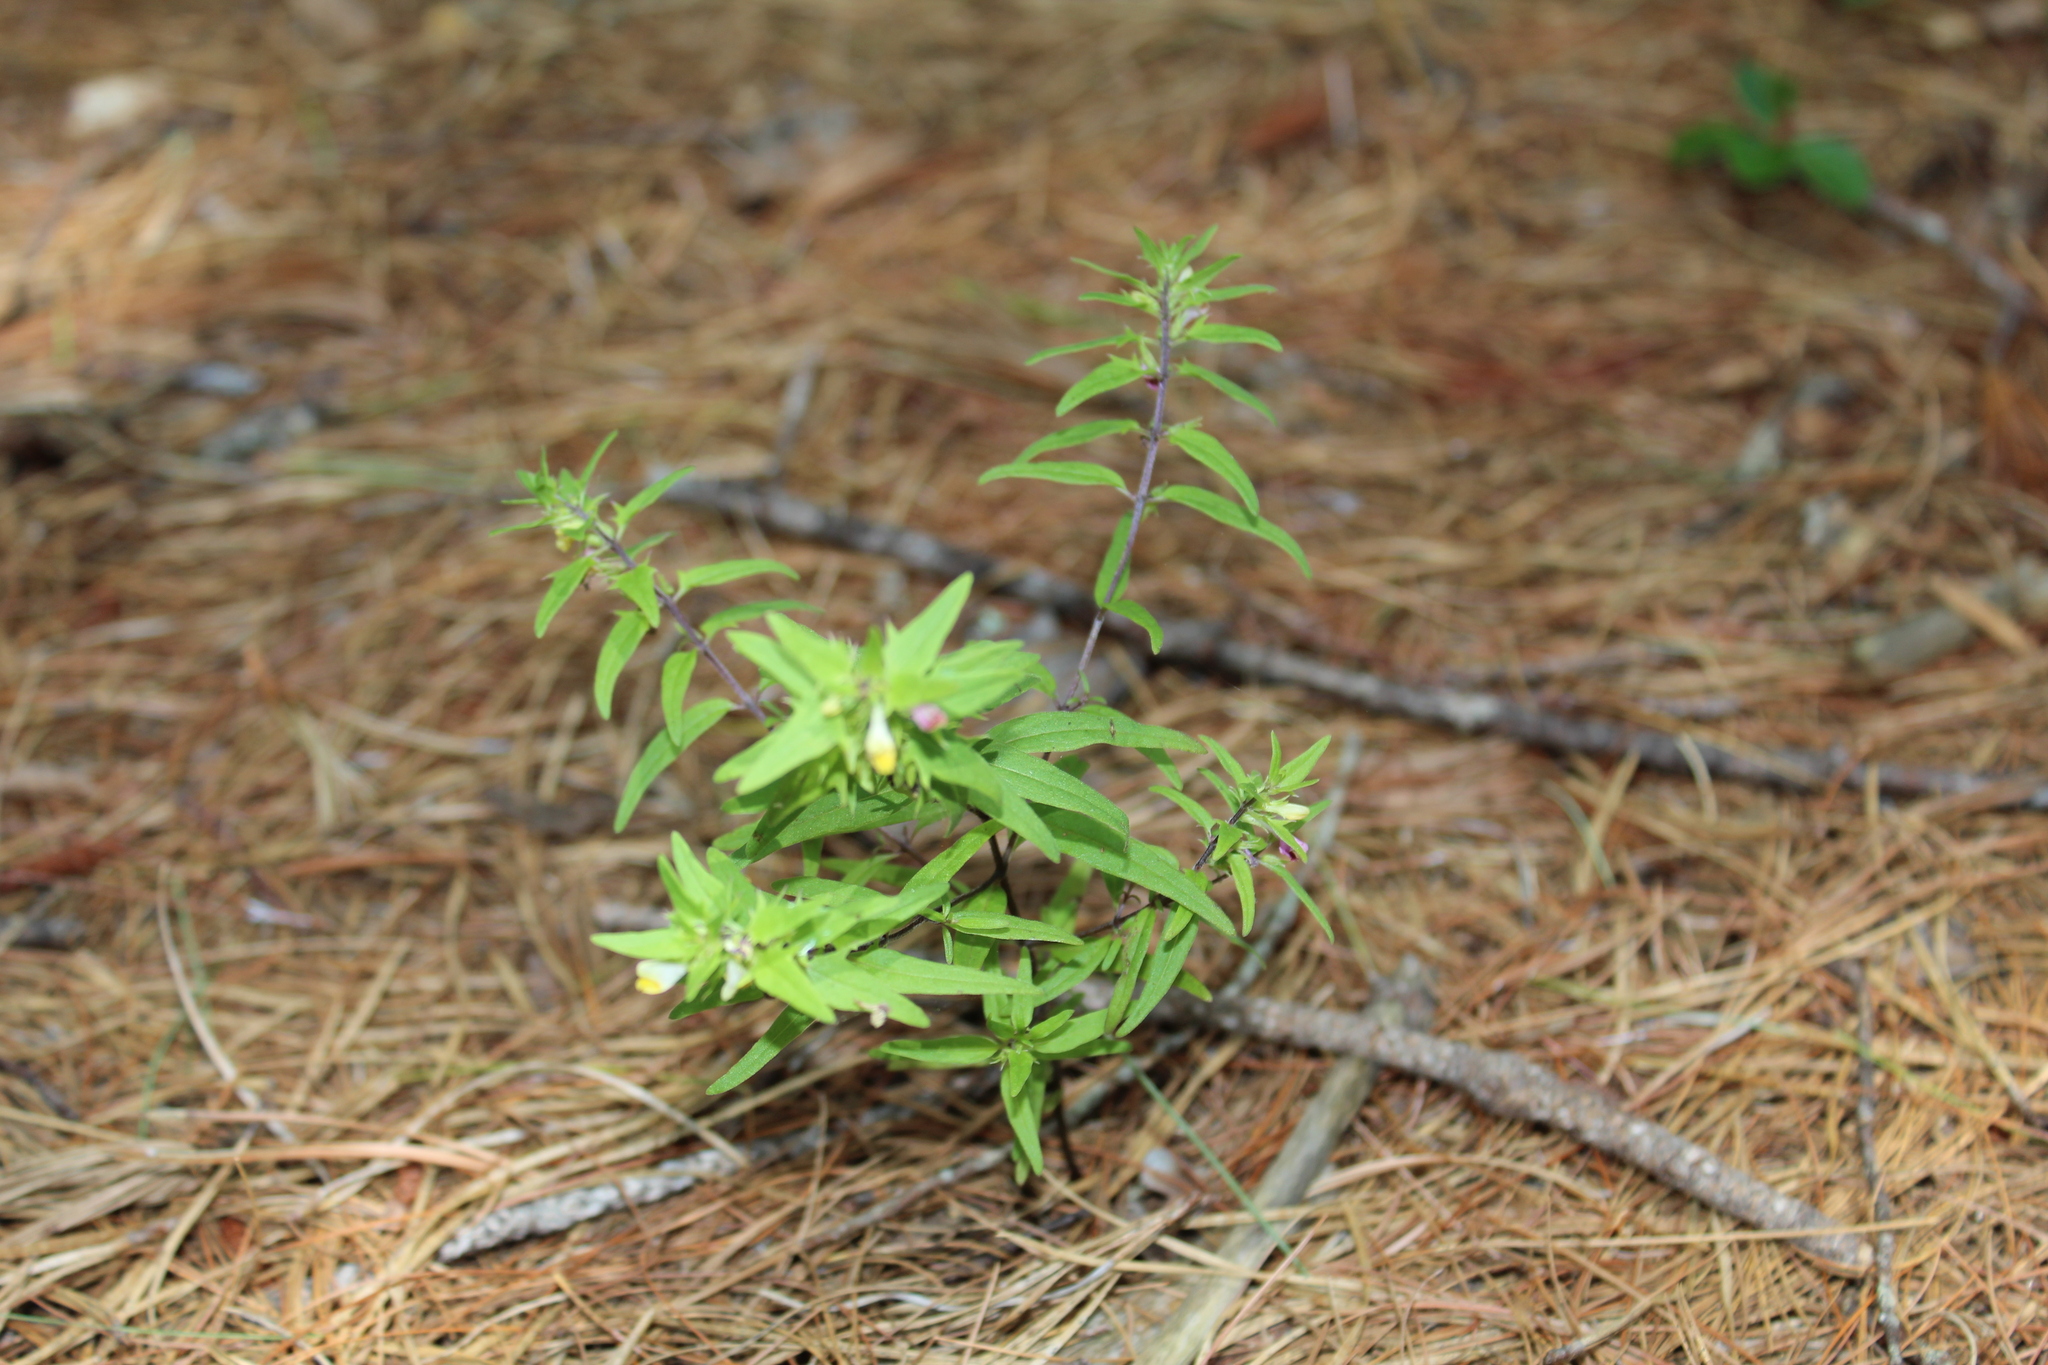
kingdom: Plantae
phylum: Tracheophyta
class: Magnoliopsida
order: Lamiales
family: Orobanchaceae
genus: Melampyrum
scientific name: Melampyrum lineare
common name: American cow-wheat
